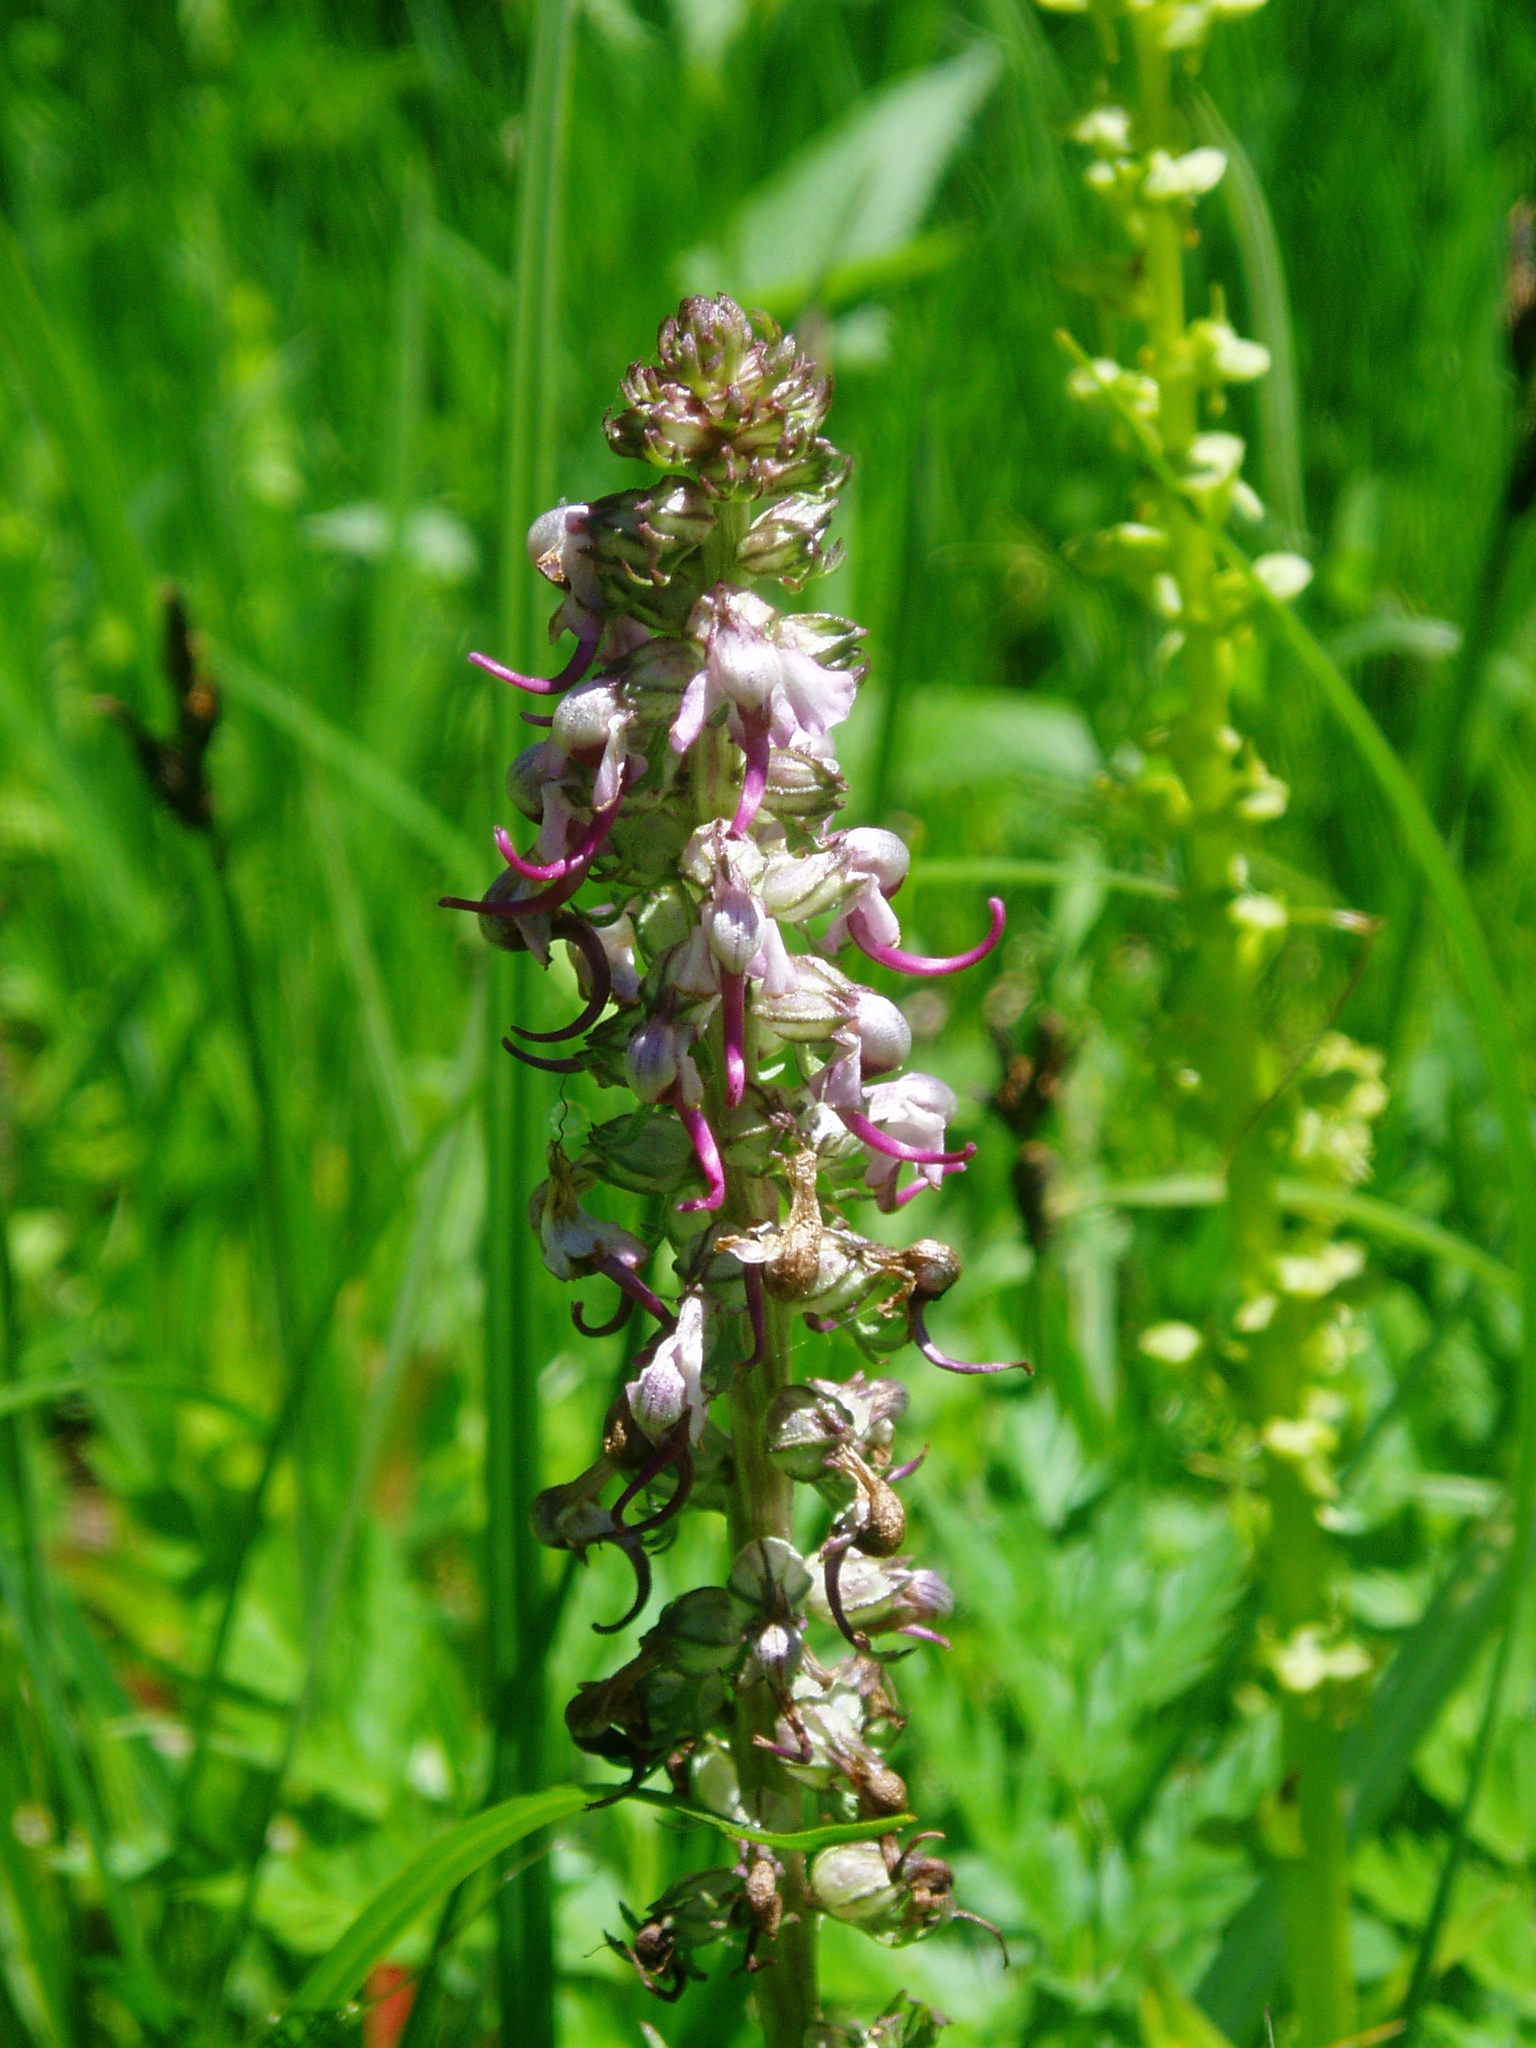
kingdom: Plantae
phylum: Tracheophyta
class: Magnoliopsida
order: Lamiales
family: Orobanchaceae
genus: Pedicularis
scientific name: Pedicularis groenlandica
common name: Elephant's-head
